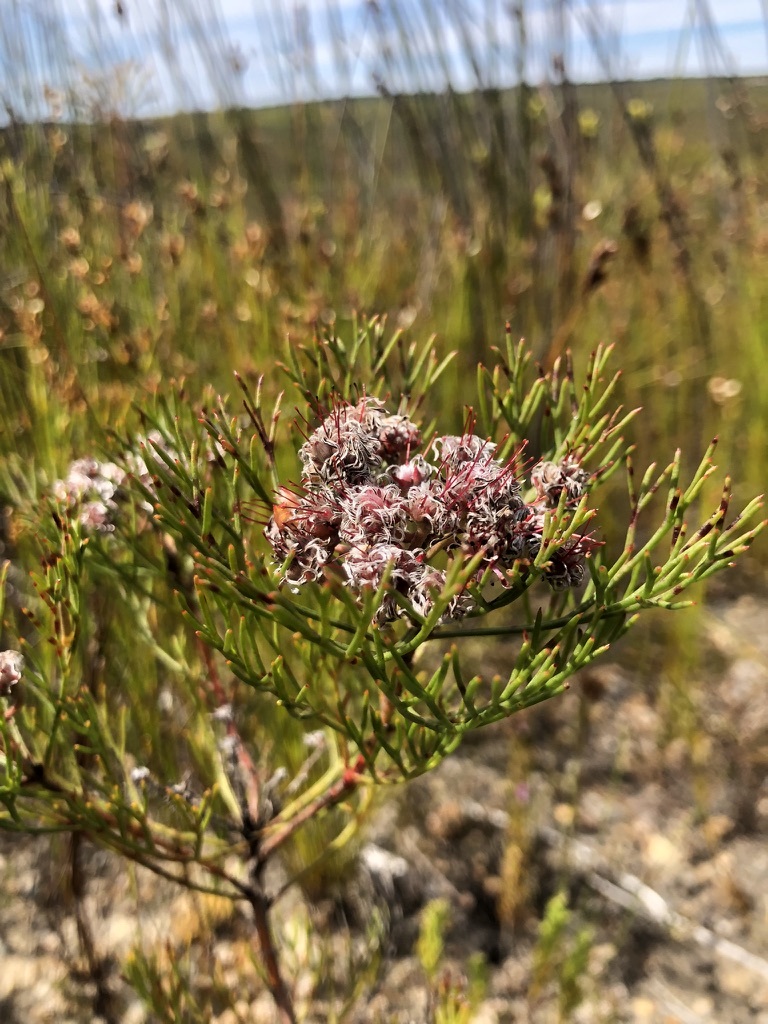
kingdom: Plantae
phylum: Tracheophyta
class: Magnoliopsida
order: Proteales
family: Proteaceae
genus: Serruria
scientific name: Serruria fasciflora
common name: Common pin spiderhead
